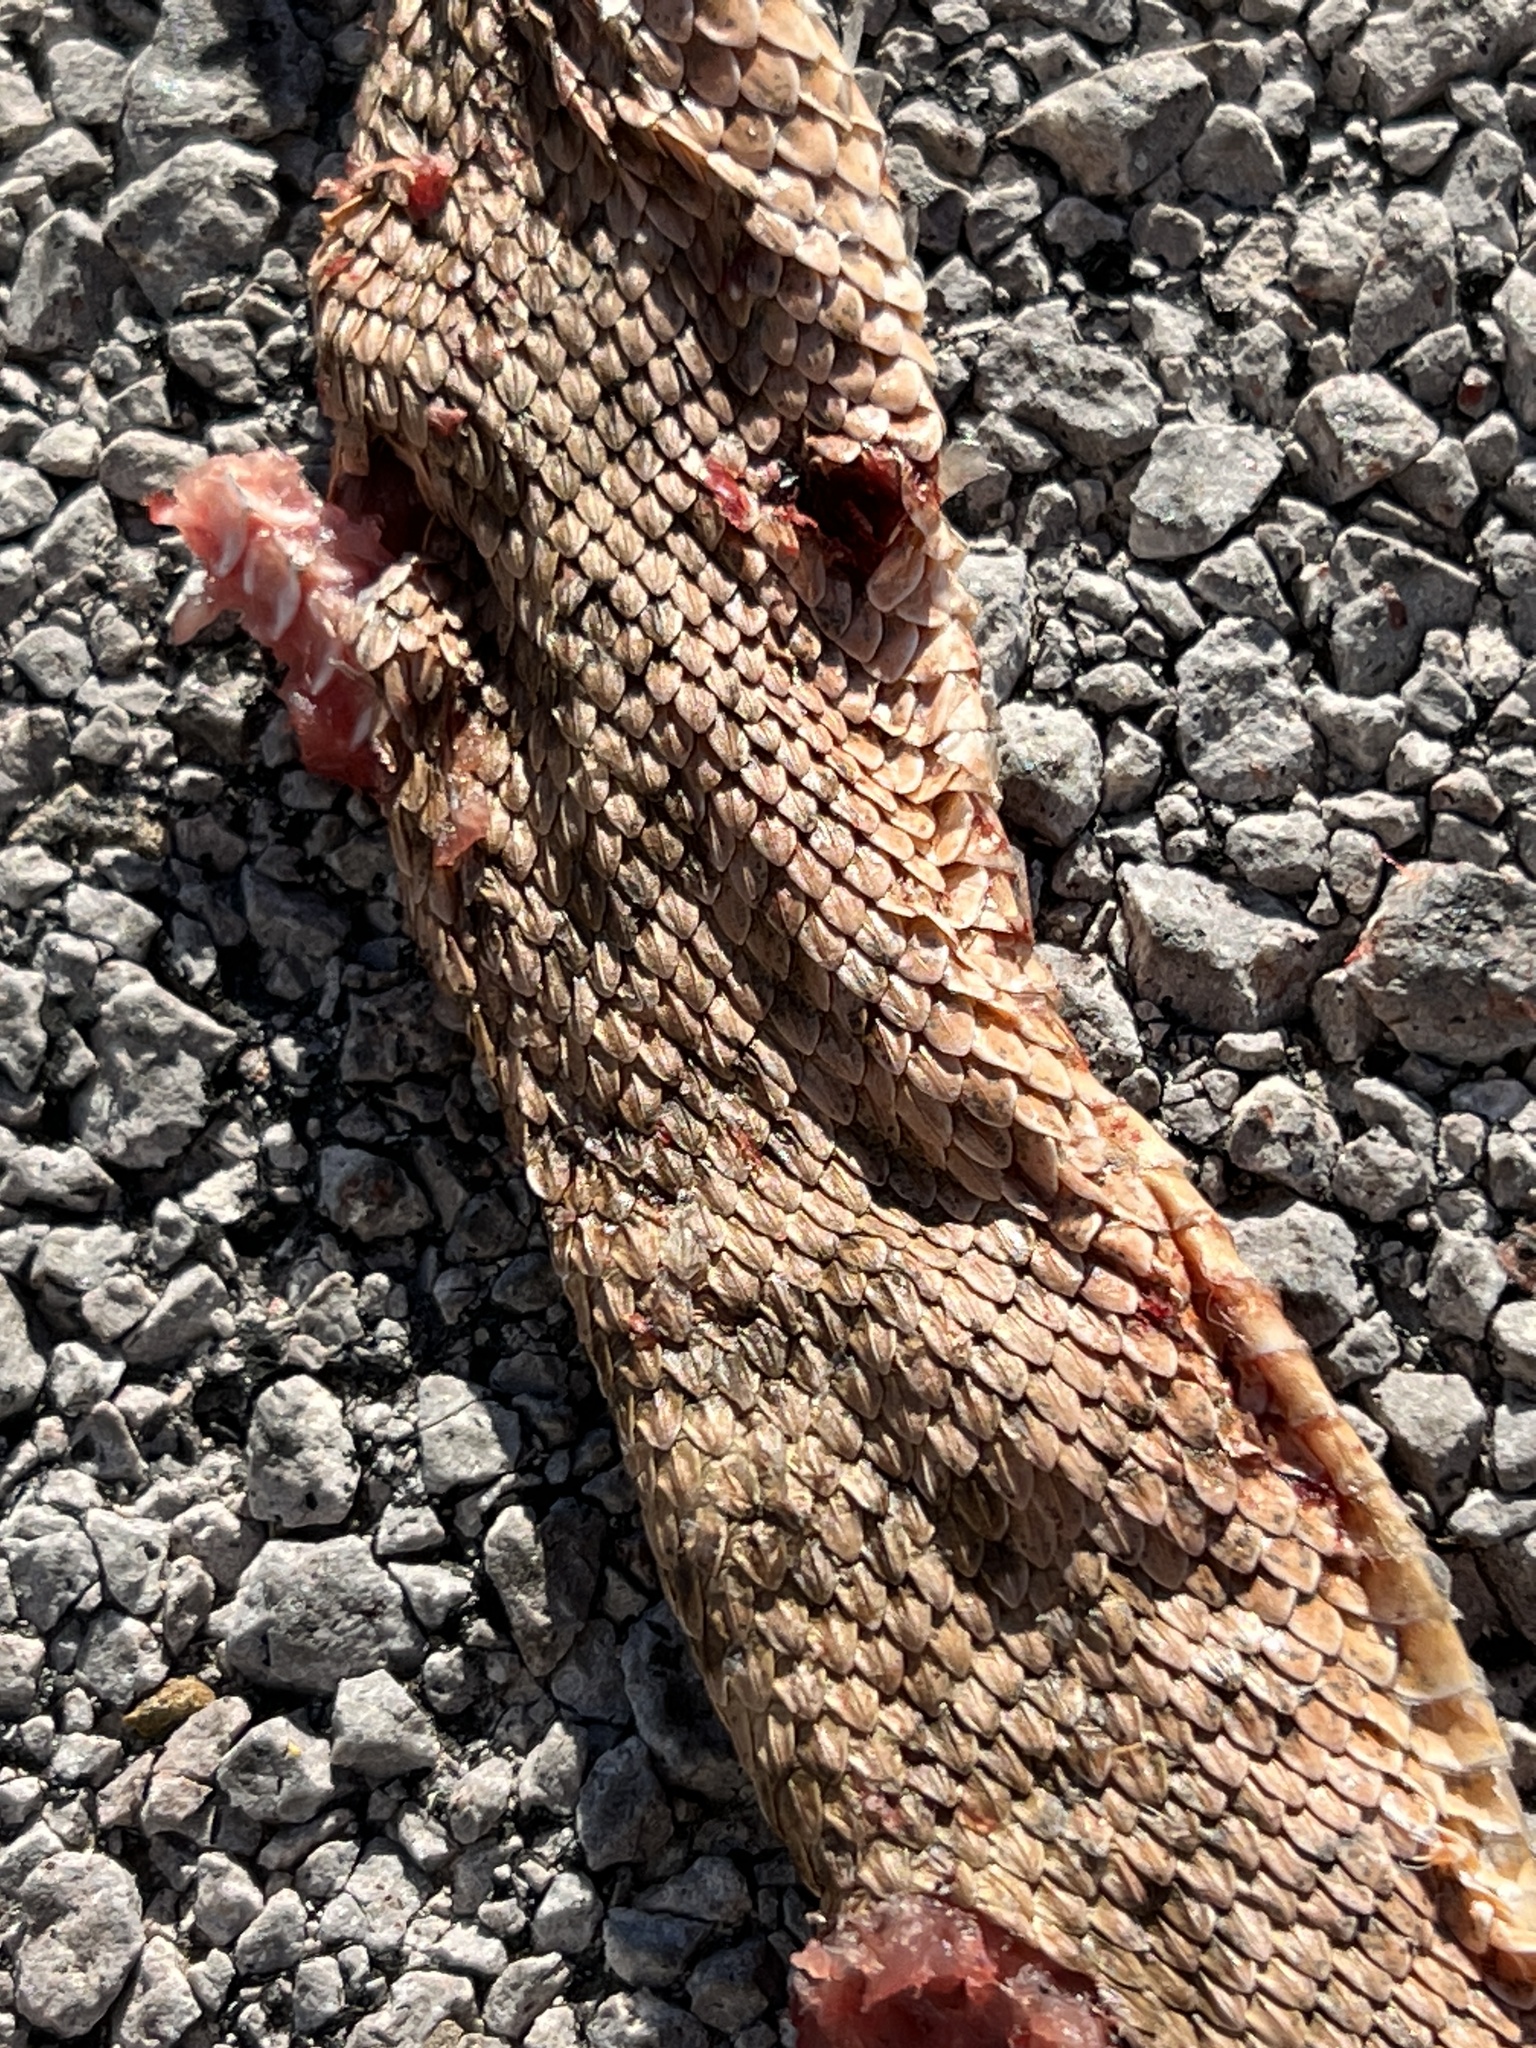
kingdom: Animalia
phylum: Chordata
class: Squamata
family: Viperidae
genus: Crotalus
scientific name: Crotalus viridis
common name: Prairie rattlesnake
